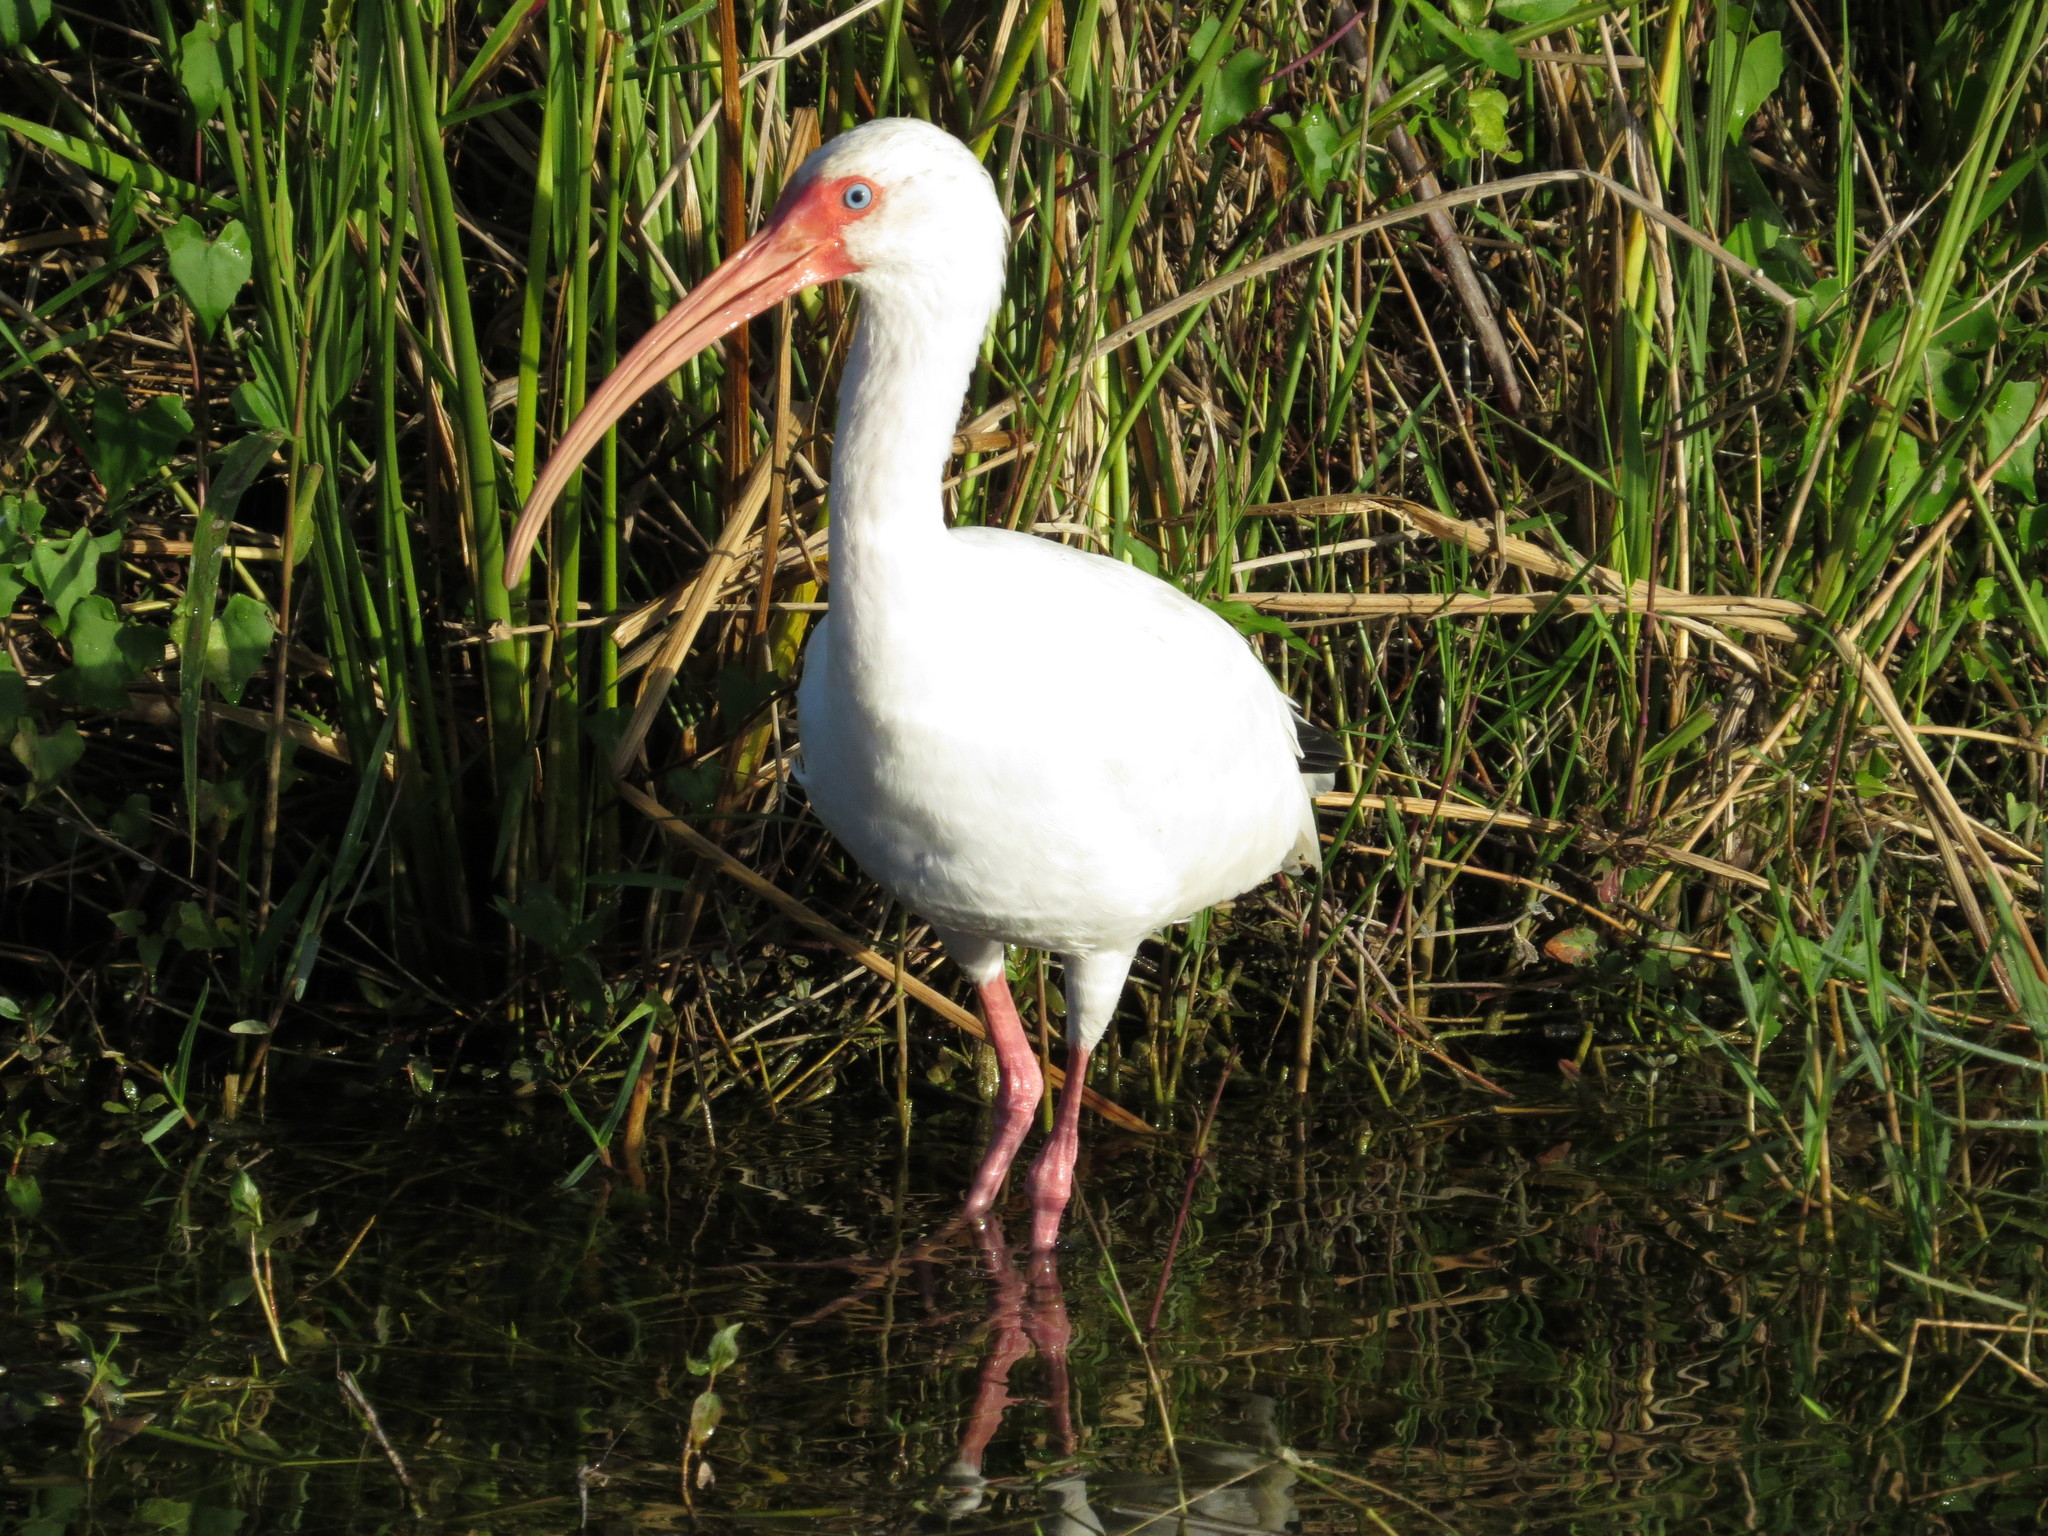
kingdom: Animalia
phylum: Chordata
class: Aves
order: Pelecaniformes
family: Threskiornithidae
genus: Eudocimus
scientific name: Eudocimus albus
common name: White ibis
